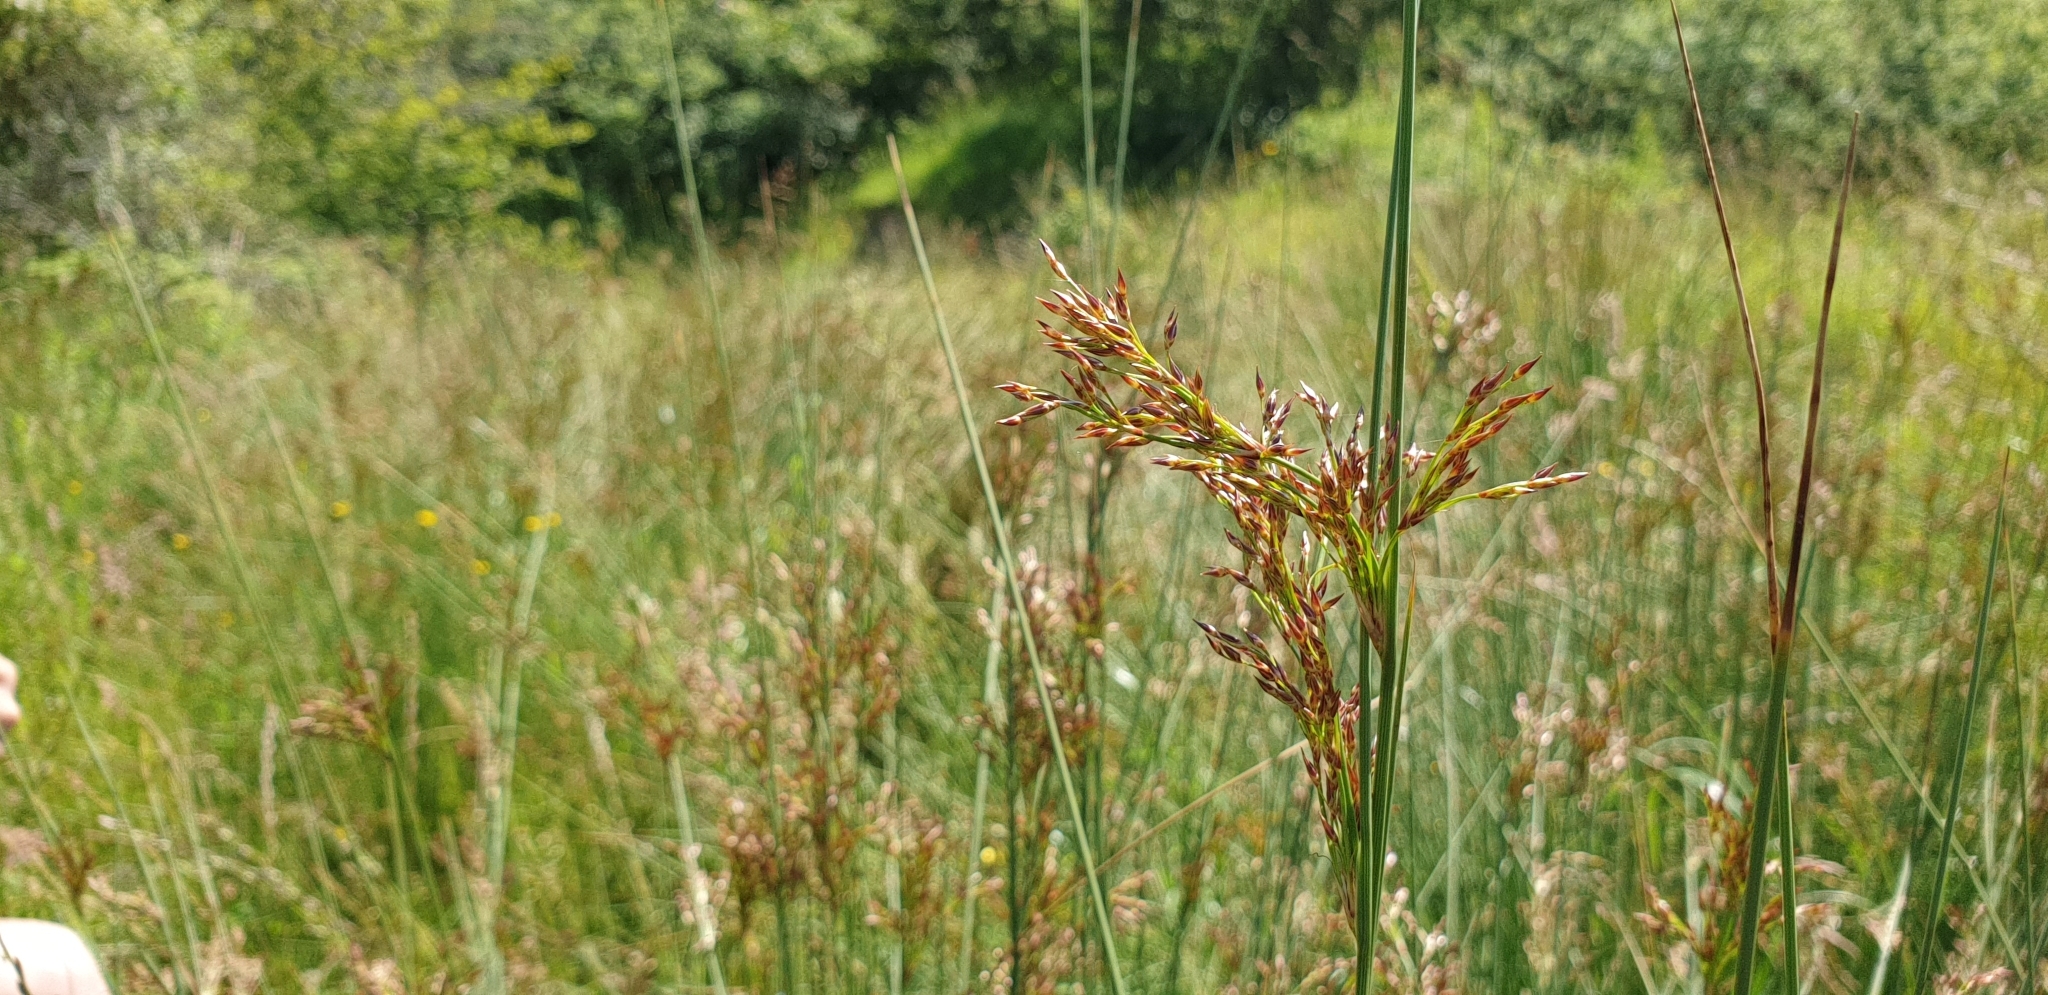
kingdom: Plantae
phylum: Tracheophyta
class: Liliopsida
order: Poales
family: Juncaceae
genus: Juncus
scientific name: Juncus inflexus
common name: Hard rush
